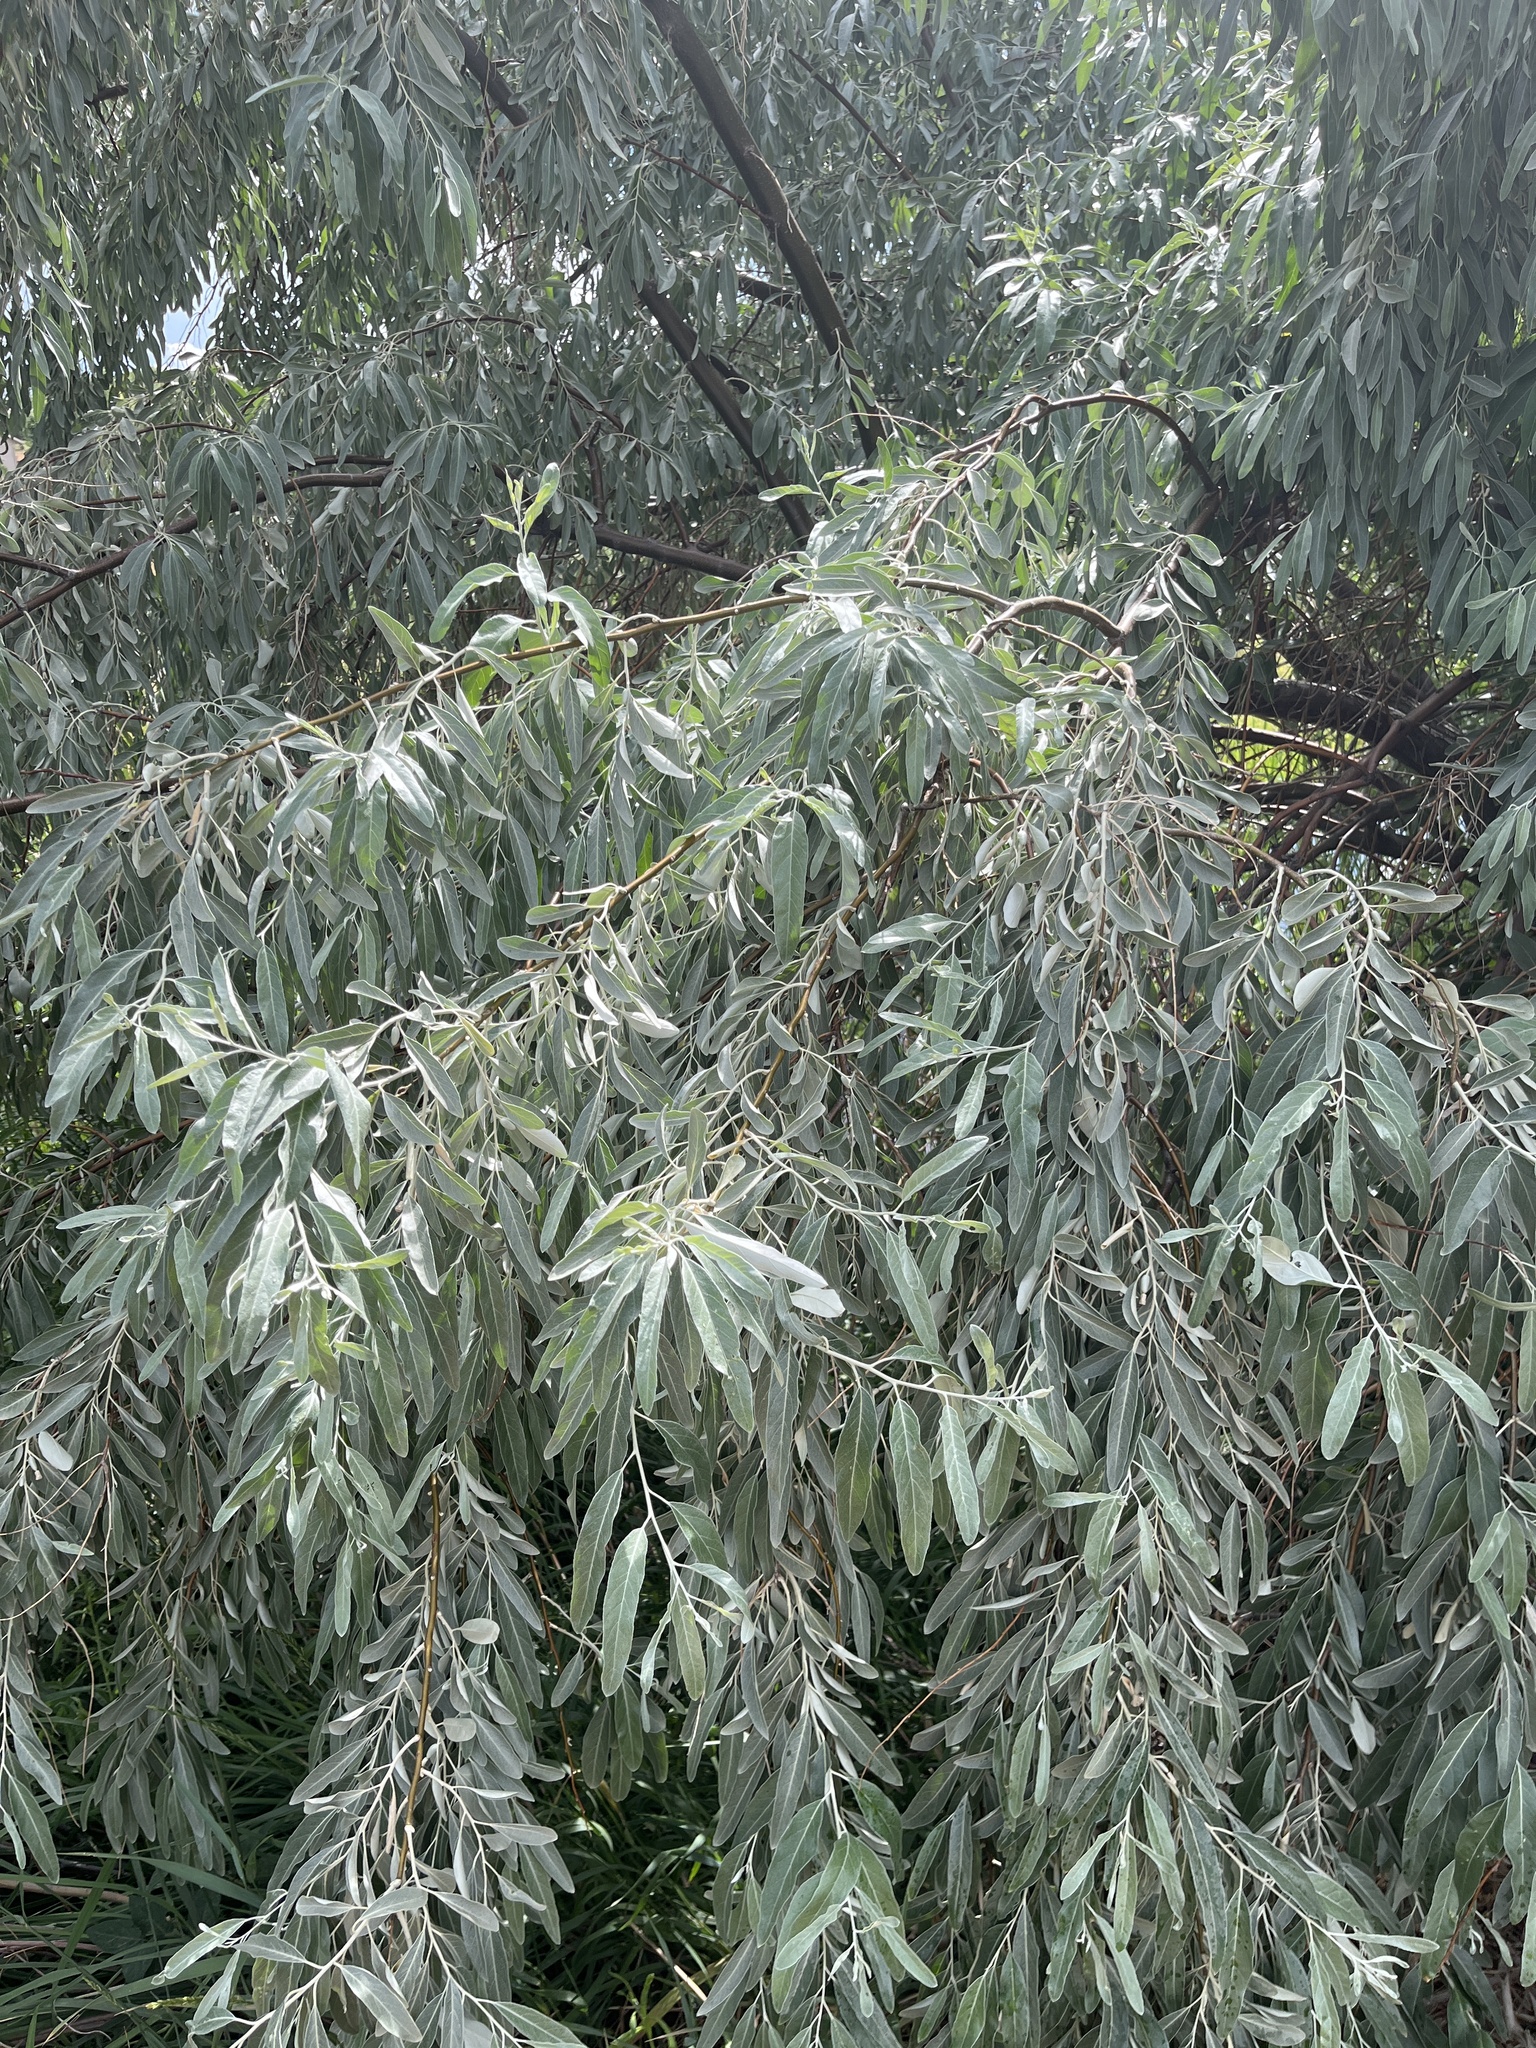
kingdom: Plantae
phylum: Tracheophyta
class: Magnoliopsida
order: Rosales
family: Elaeagnaceae
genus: Elaeagnus
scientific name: Elaeagnus angustifolia
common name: Russian olive
